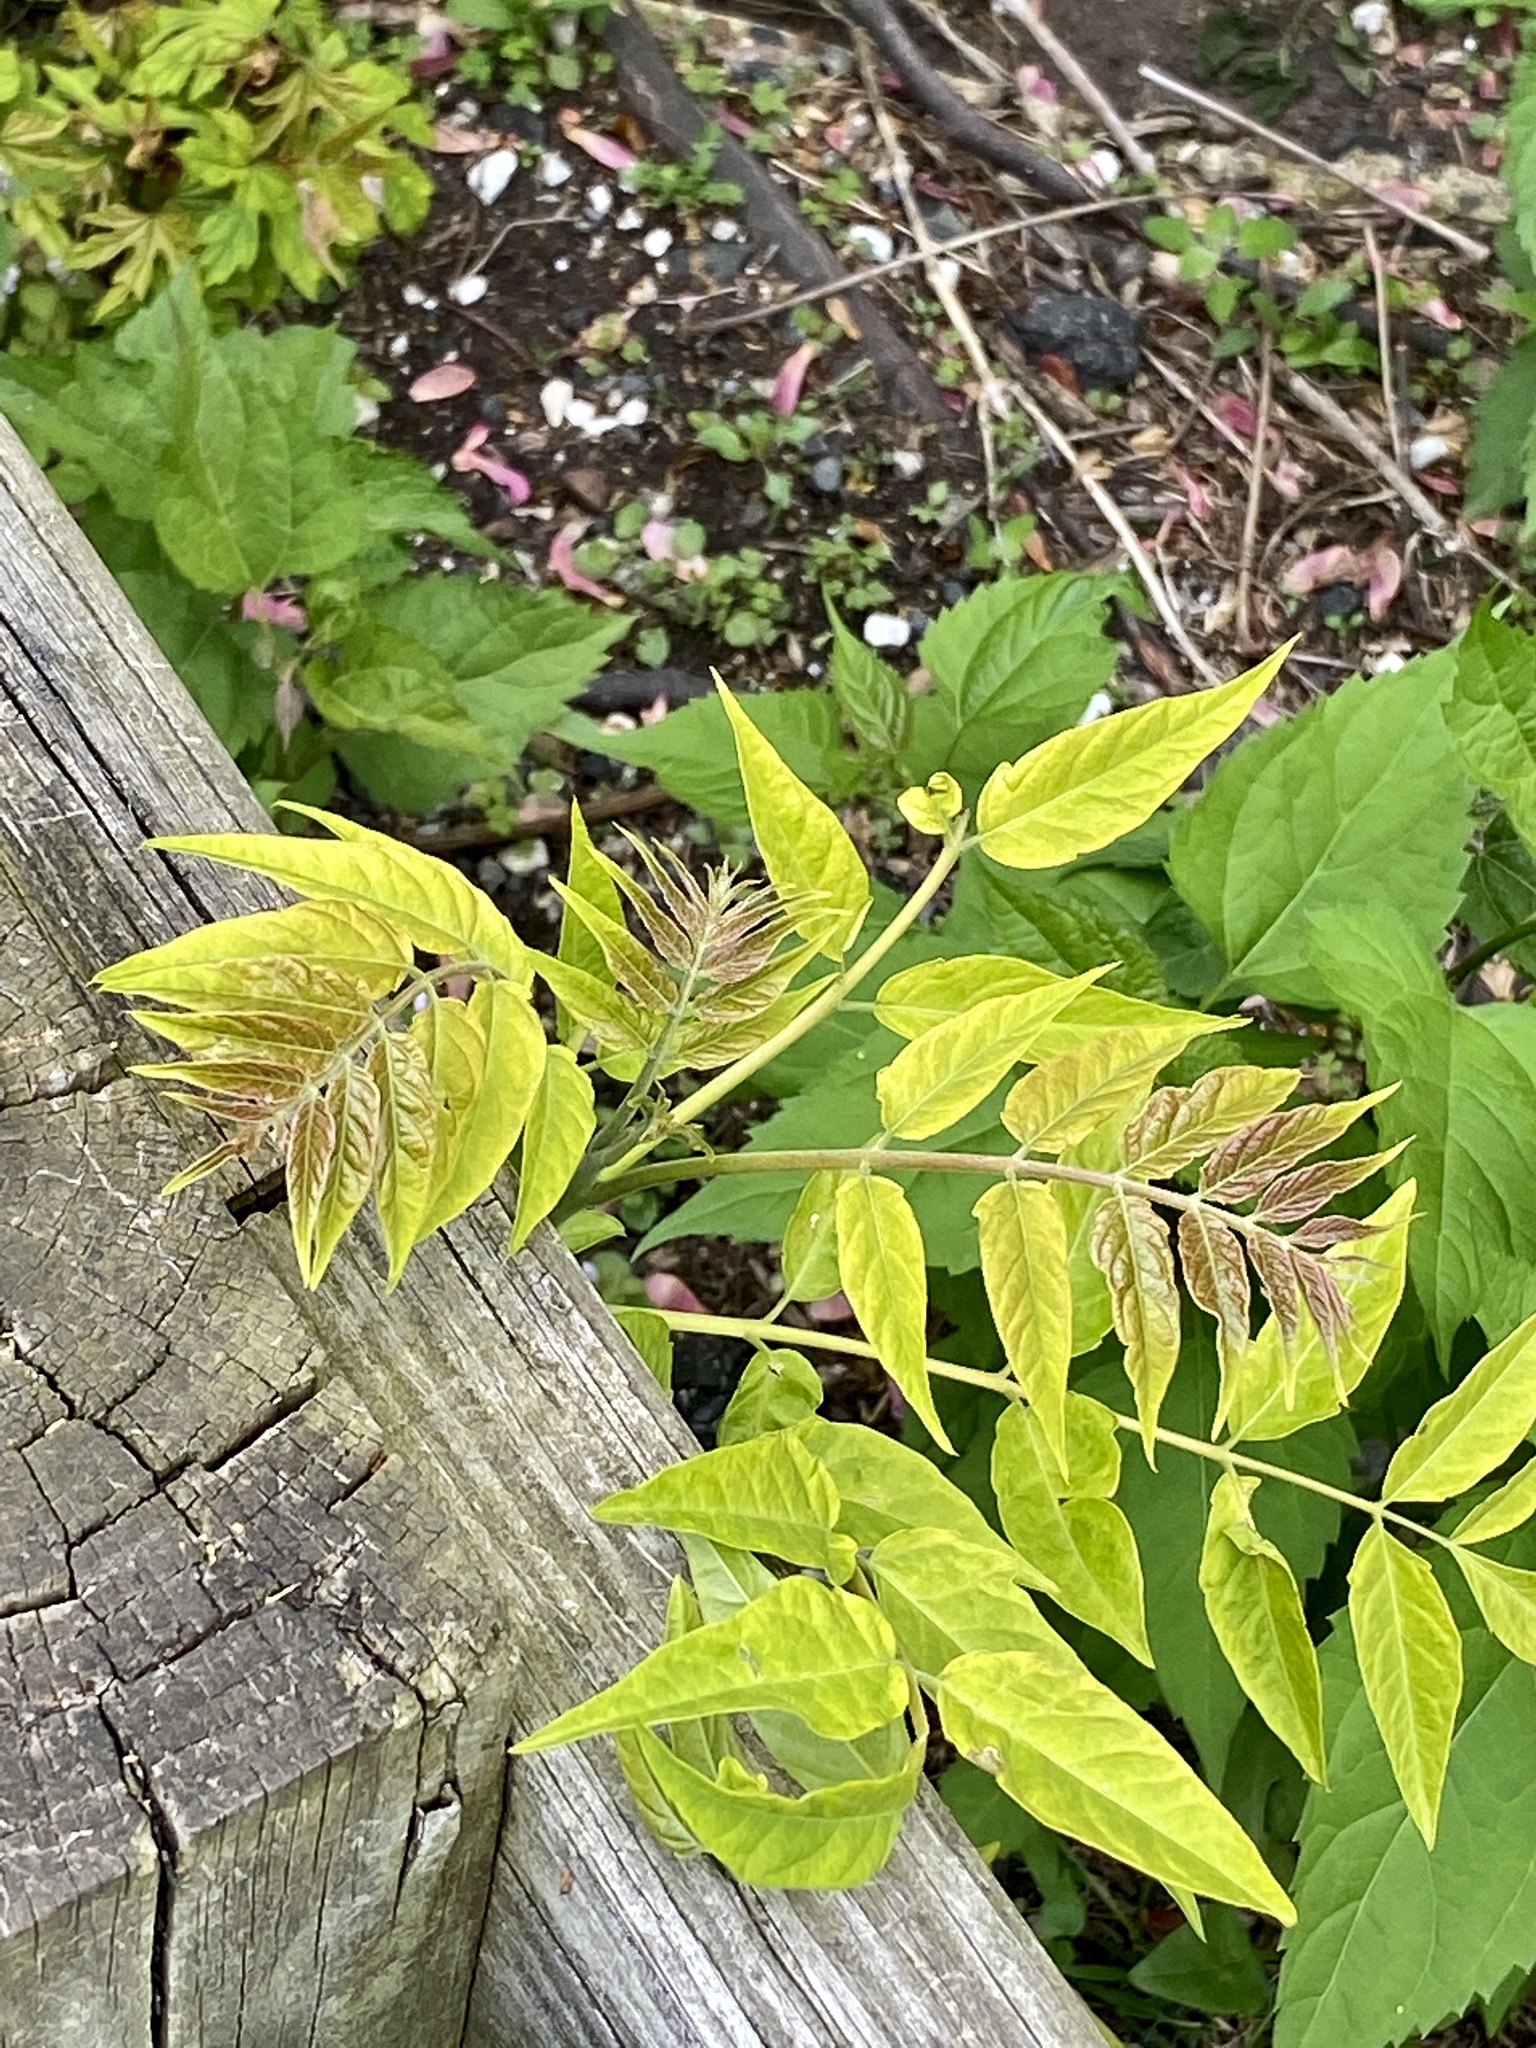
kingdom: Plantae
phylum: Tracheophyta
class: Magnoliopsida
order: Sapindales
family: Simaroubaceae
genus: Ailanthus
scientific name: Ailanthus altissima
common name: Tree-of-heaven
